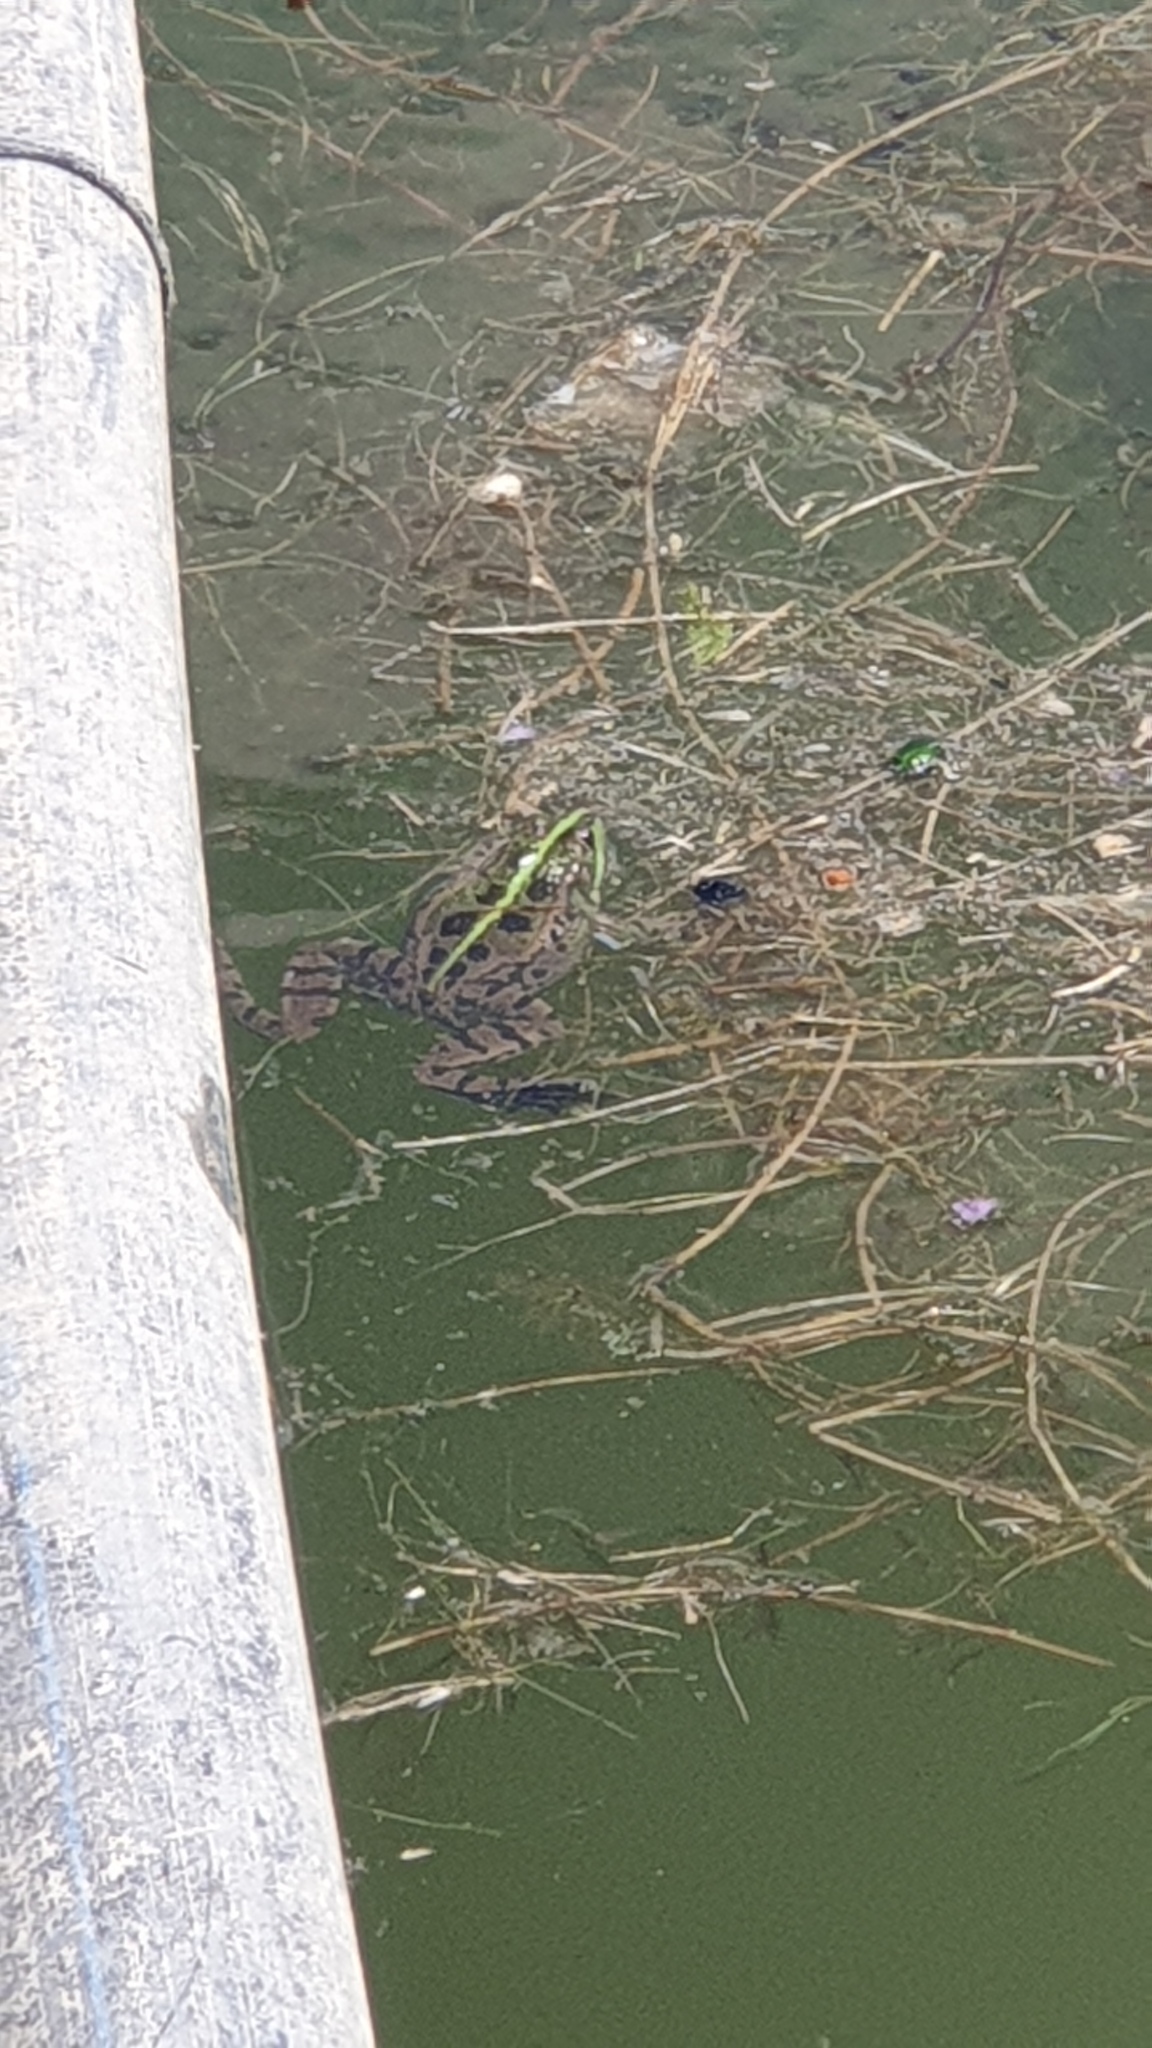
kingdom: Animalia
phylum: Chordata
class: Amphibia
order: Anura
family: Ranidae
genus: Pelophylax
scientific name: Pelophylax ridibundus
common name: Marsh frog
